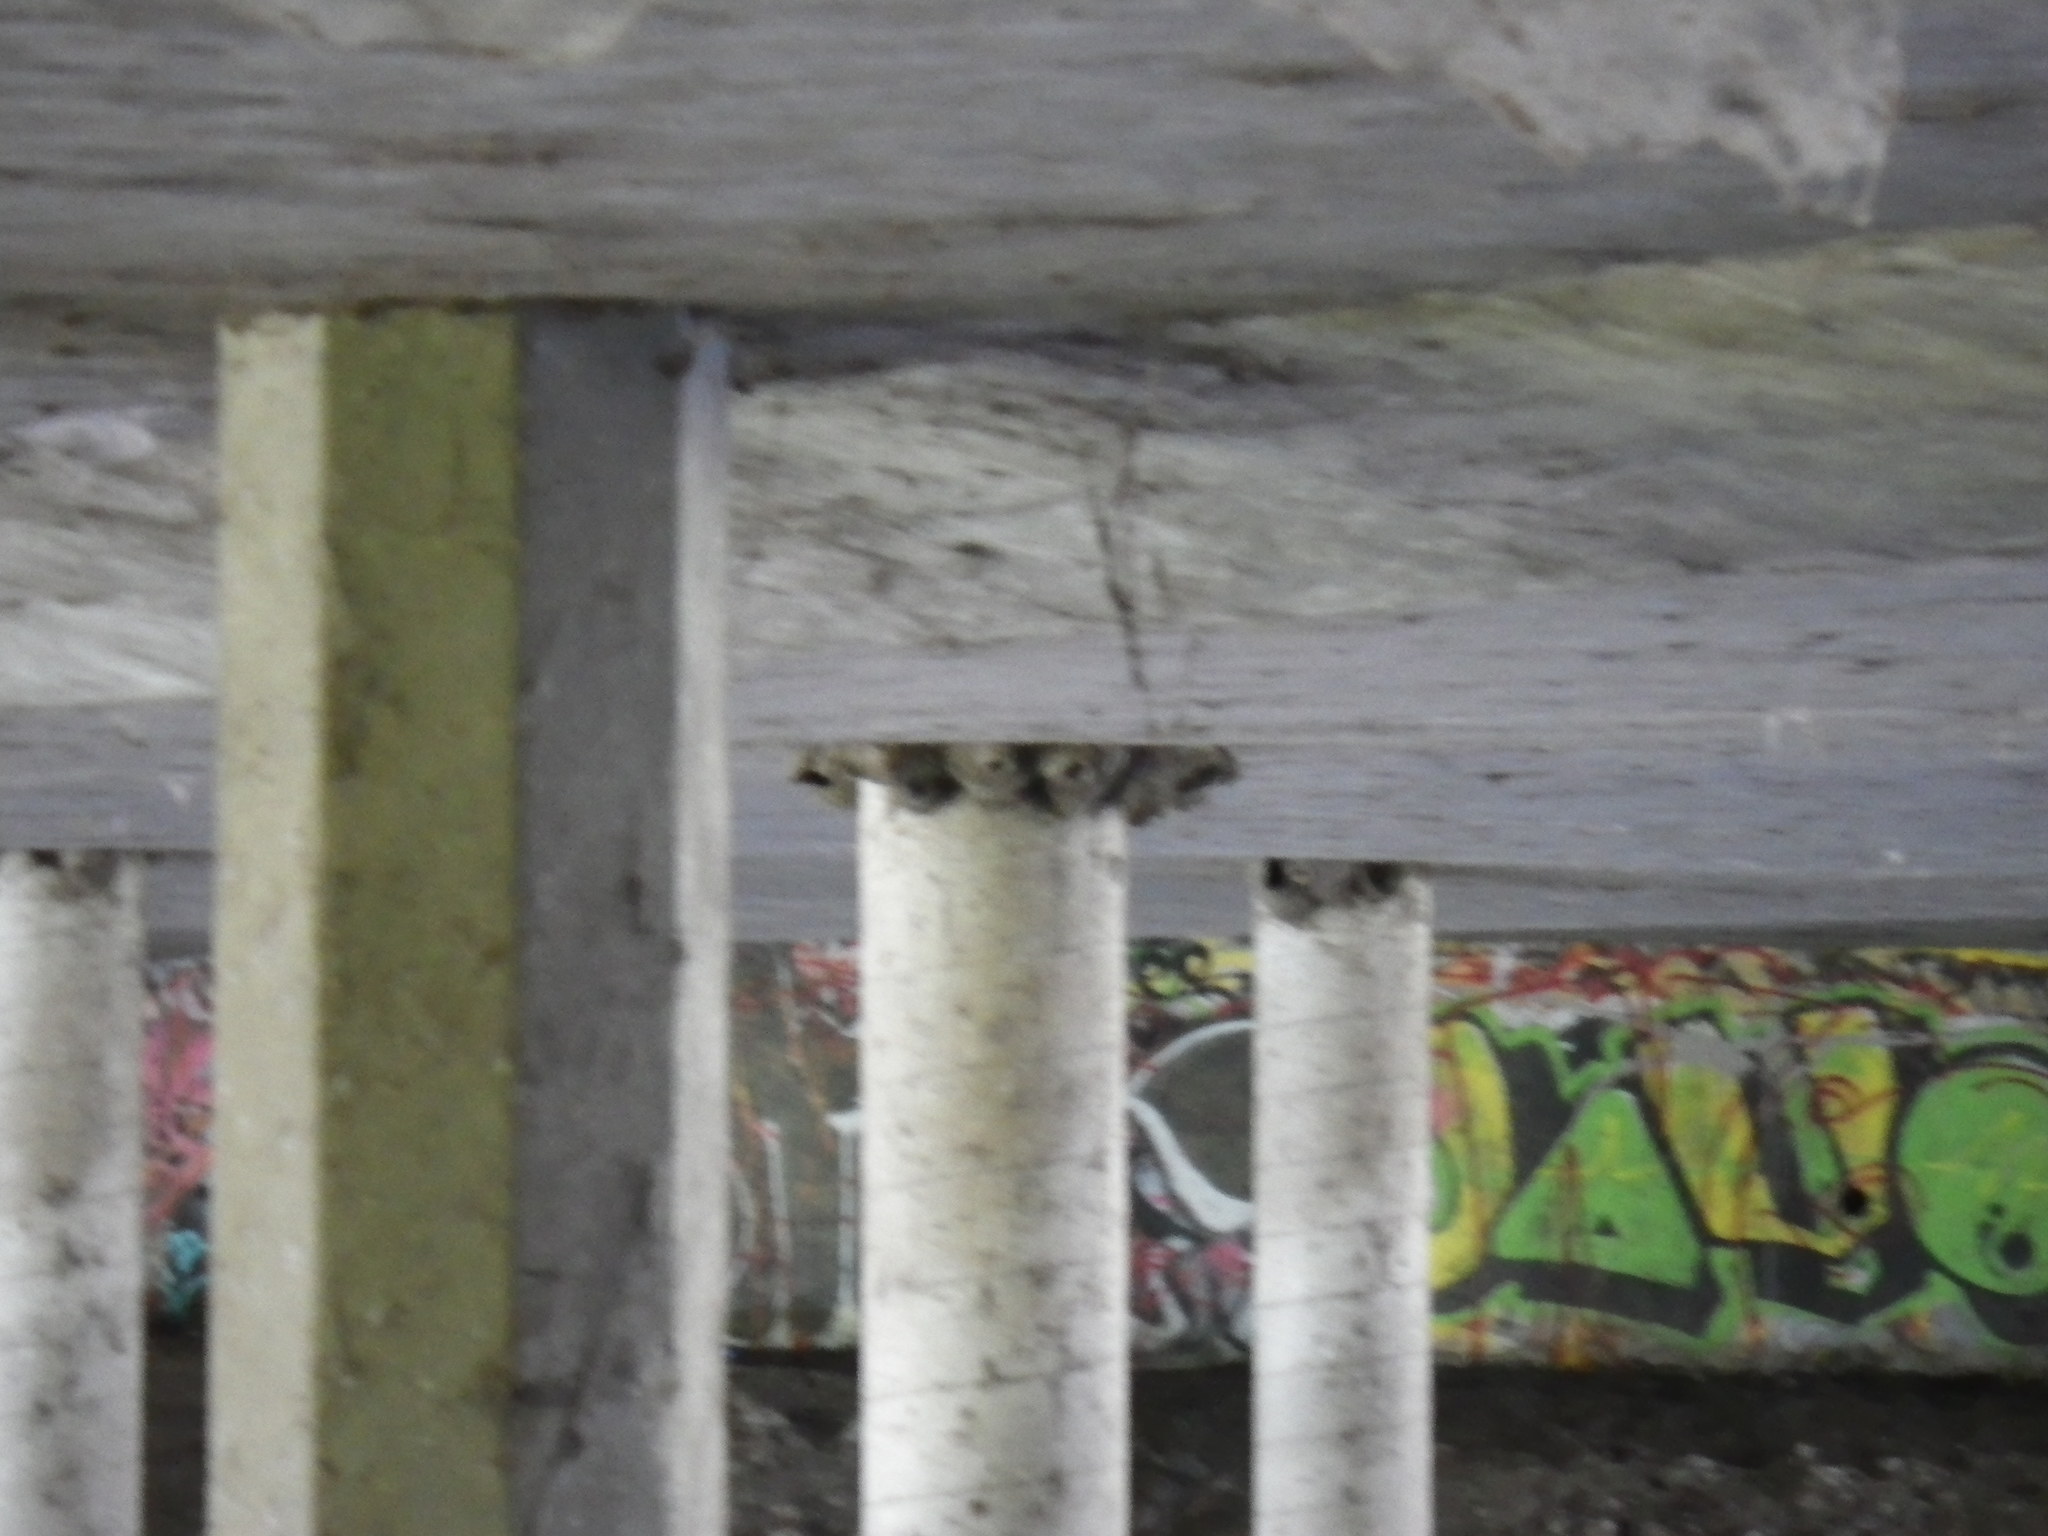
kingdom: Animalia
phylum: Chordata
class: Aves
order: Passeriformes
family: Hirundinidae
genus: Petrochelidon
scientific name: Petrochelidon pyrrhonota
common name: American cliff swallow
